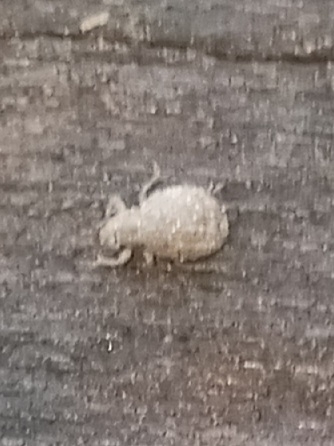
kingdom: Animalia
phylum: Arthropoda
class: Insecta
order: Coleoptera
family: Curculionidae
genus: Myosides
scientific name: Myosides seriehispidus
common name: Broadnosed weevil
